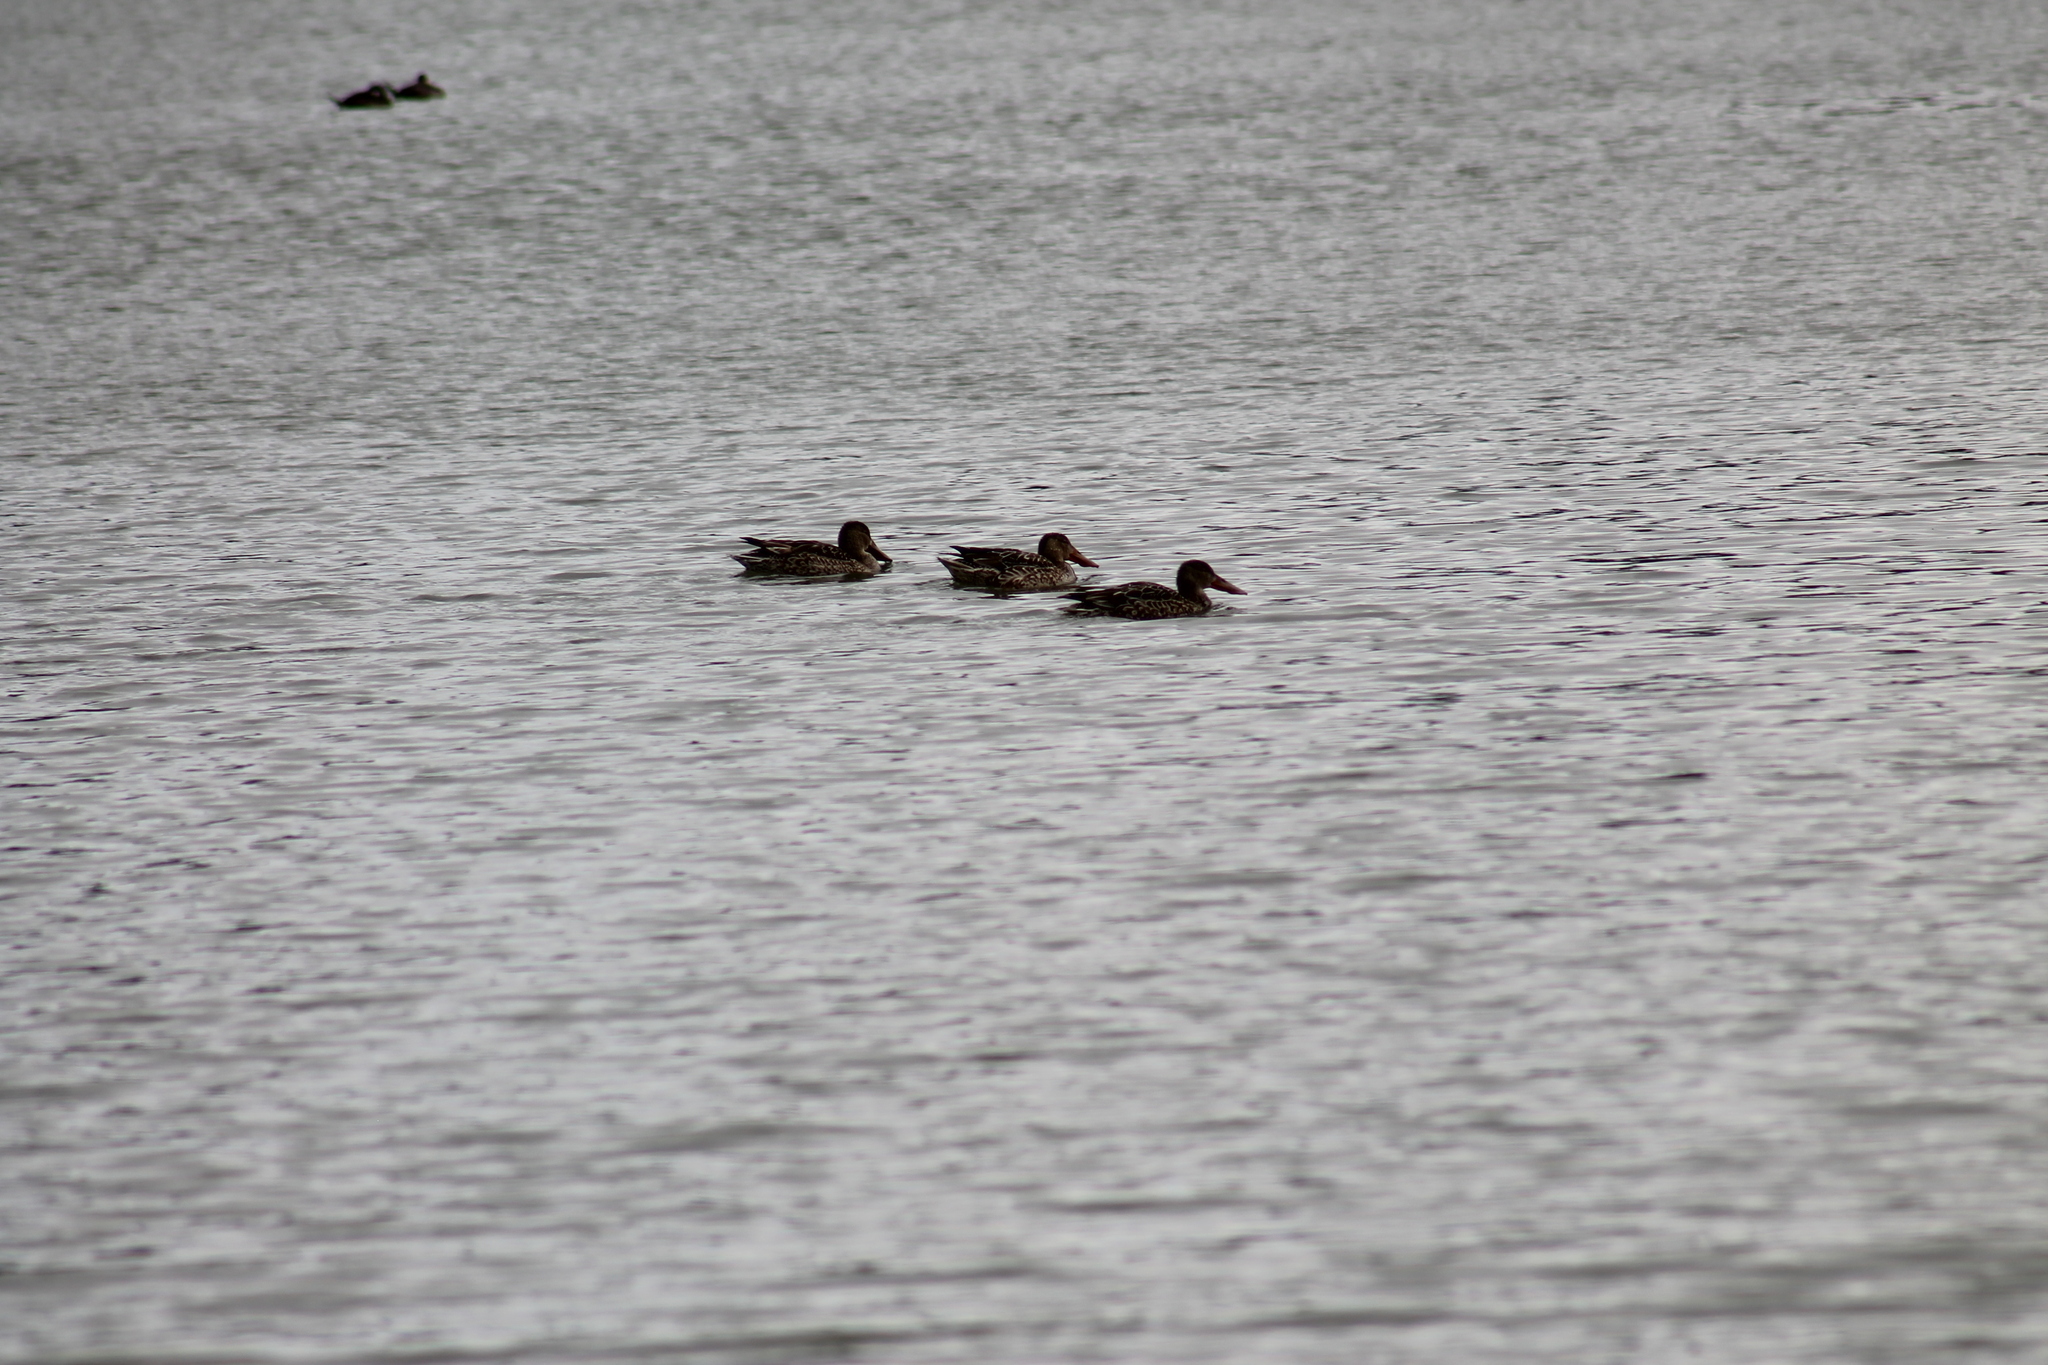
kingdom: Animalia
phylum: Chordata
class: Aves
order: Anseriformes
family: Anatidae
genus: Spatula
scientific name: Spatula clypeata
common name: Northern shoveler
